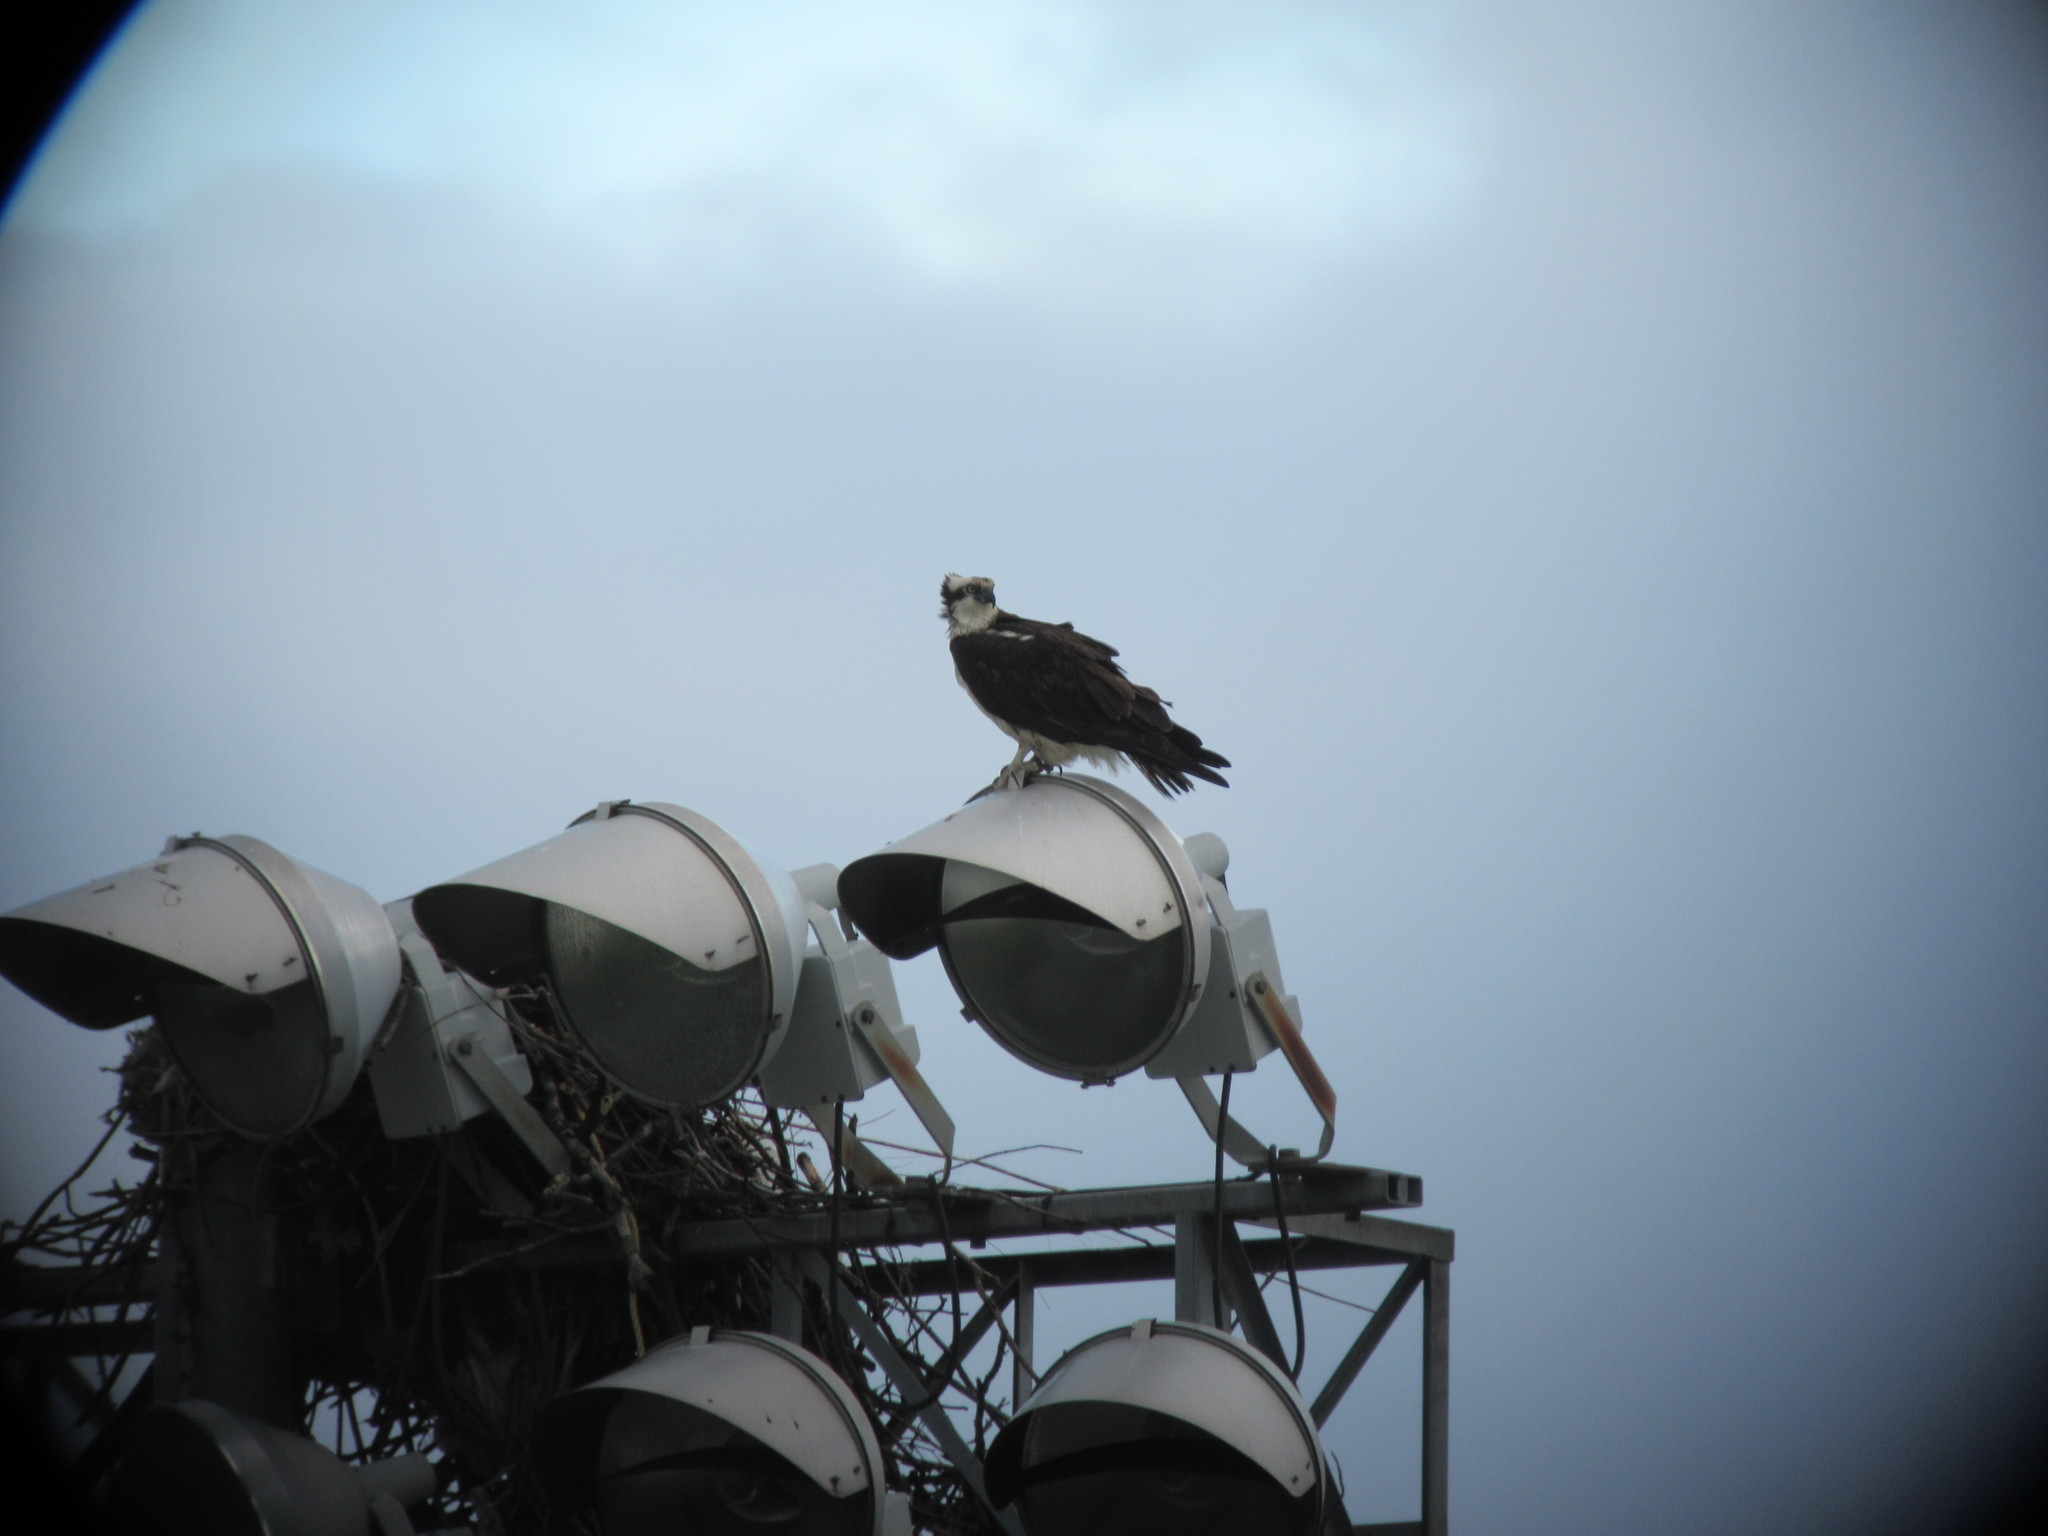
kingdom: Animalia
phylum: Chordata
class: Aves
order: Accipitriformes
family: Pandionidae
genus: Pandion
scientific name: Pandion haliaetus
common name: Osprey
